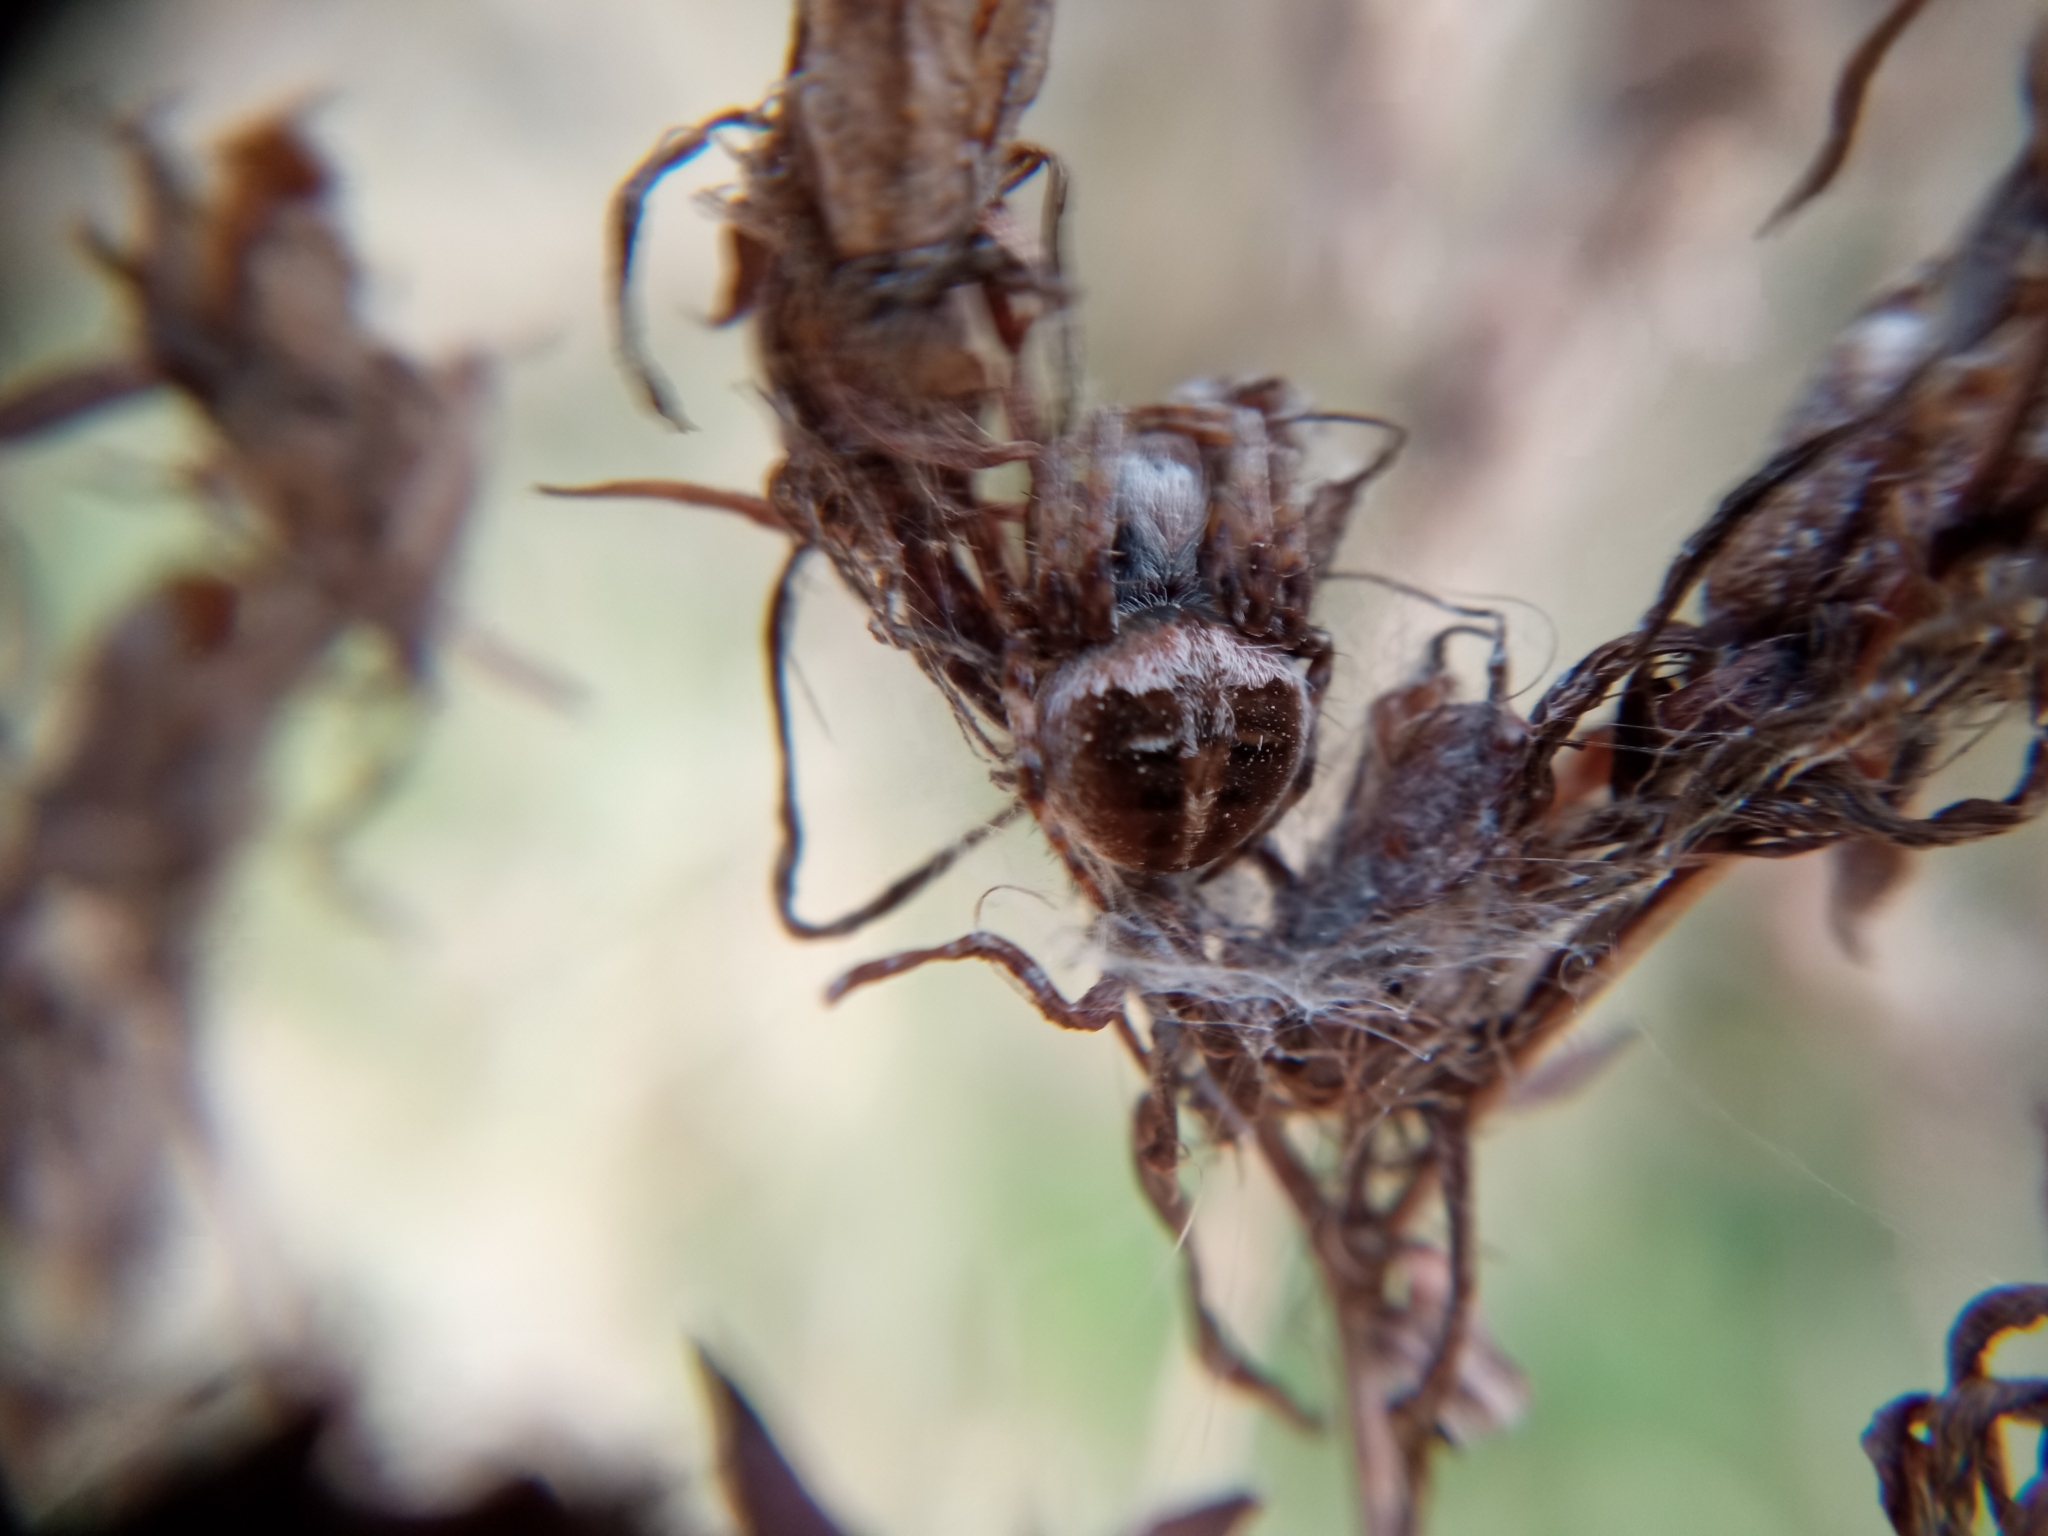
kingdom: Animalia
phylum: Arthropoda
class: Arachnida
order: Araneae
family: Araneidae
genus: Agalenatea
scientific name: Agalenatea redii
